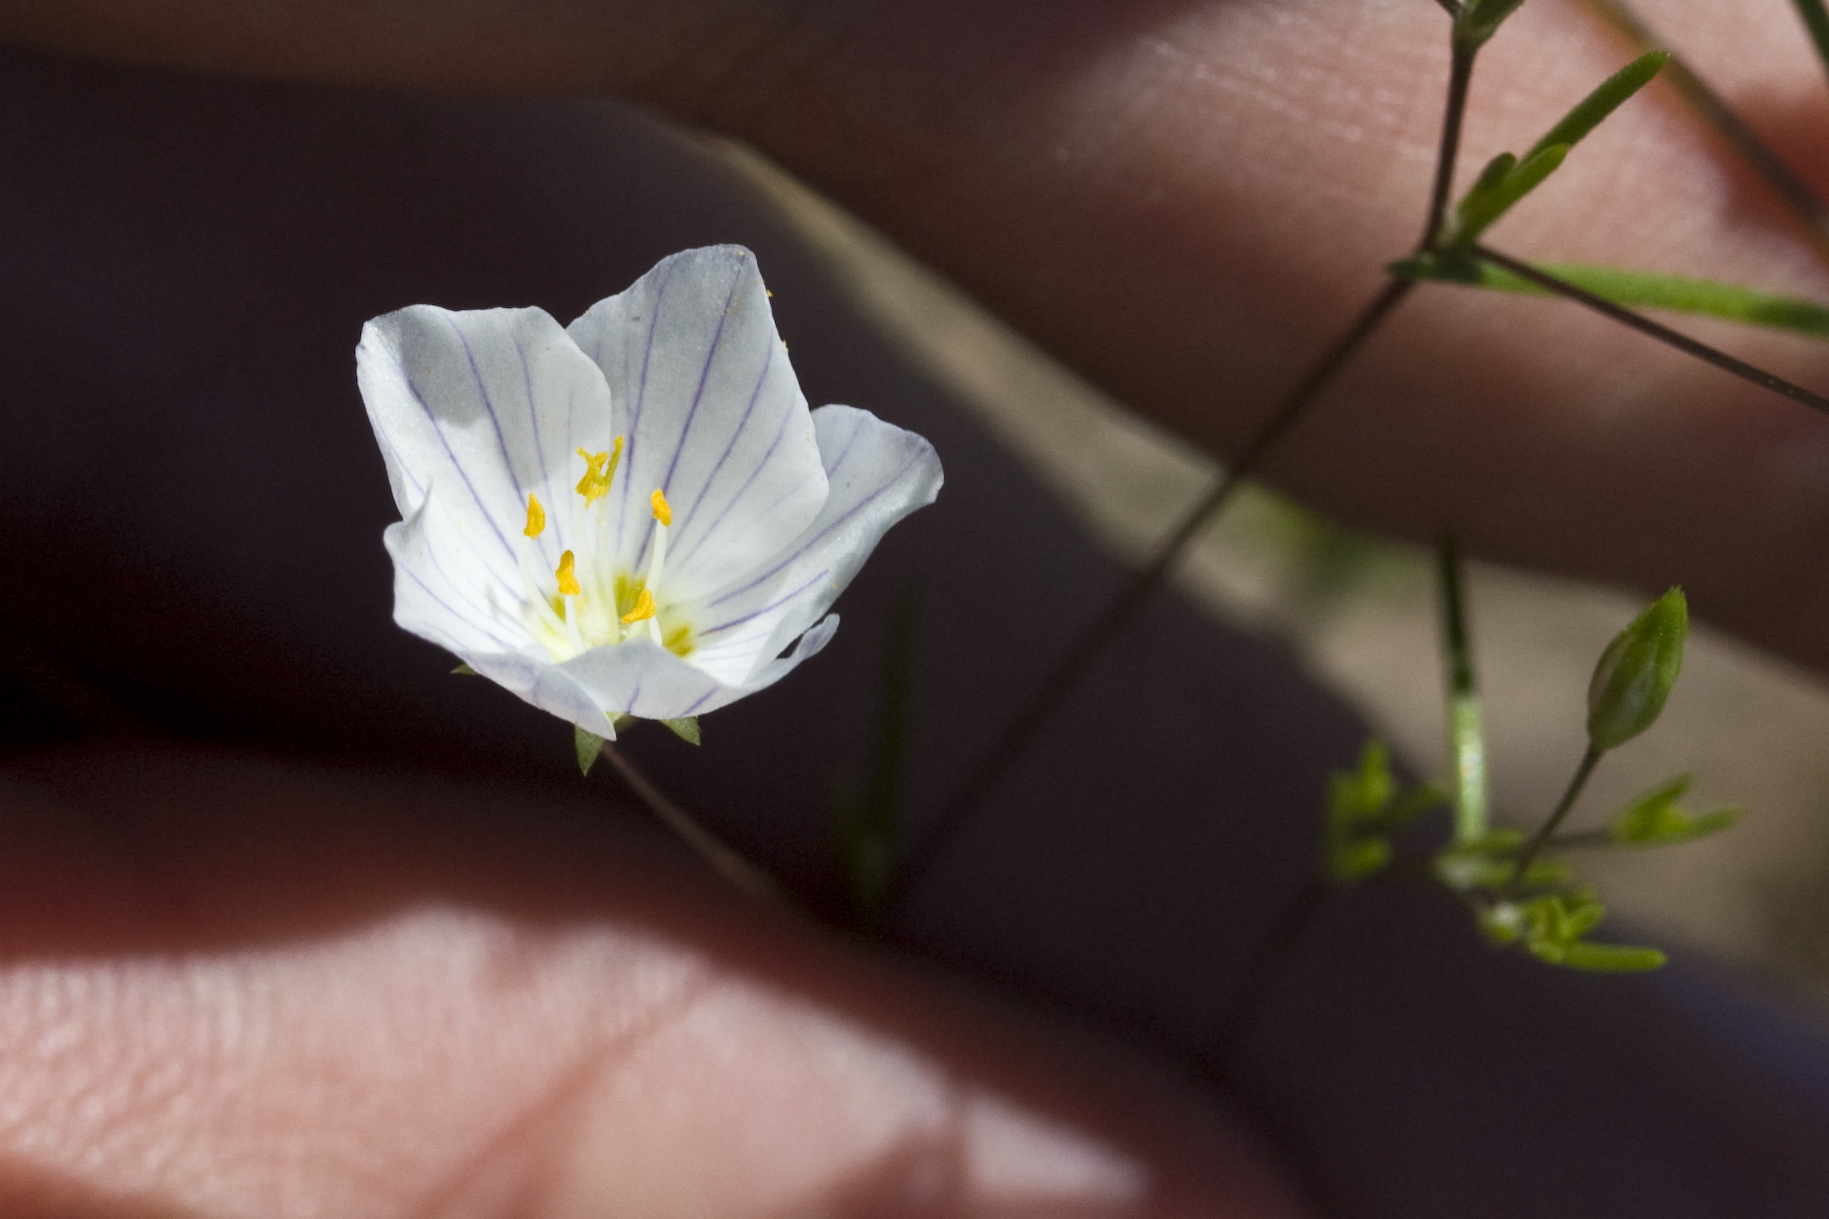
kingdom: Plantae
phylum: Tracheophyta
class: Magnoliopsida
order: Ericales
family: Polemoniaceae
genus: Leptosiphon
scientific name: Leptosiphon liniflorus
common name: Narrowflower flaxflower
